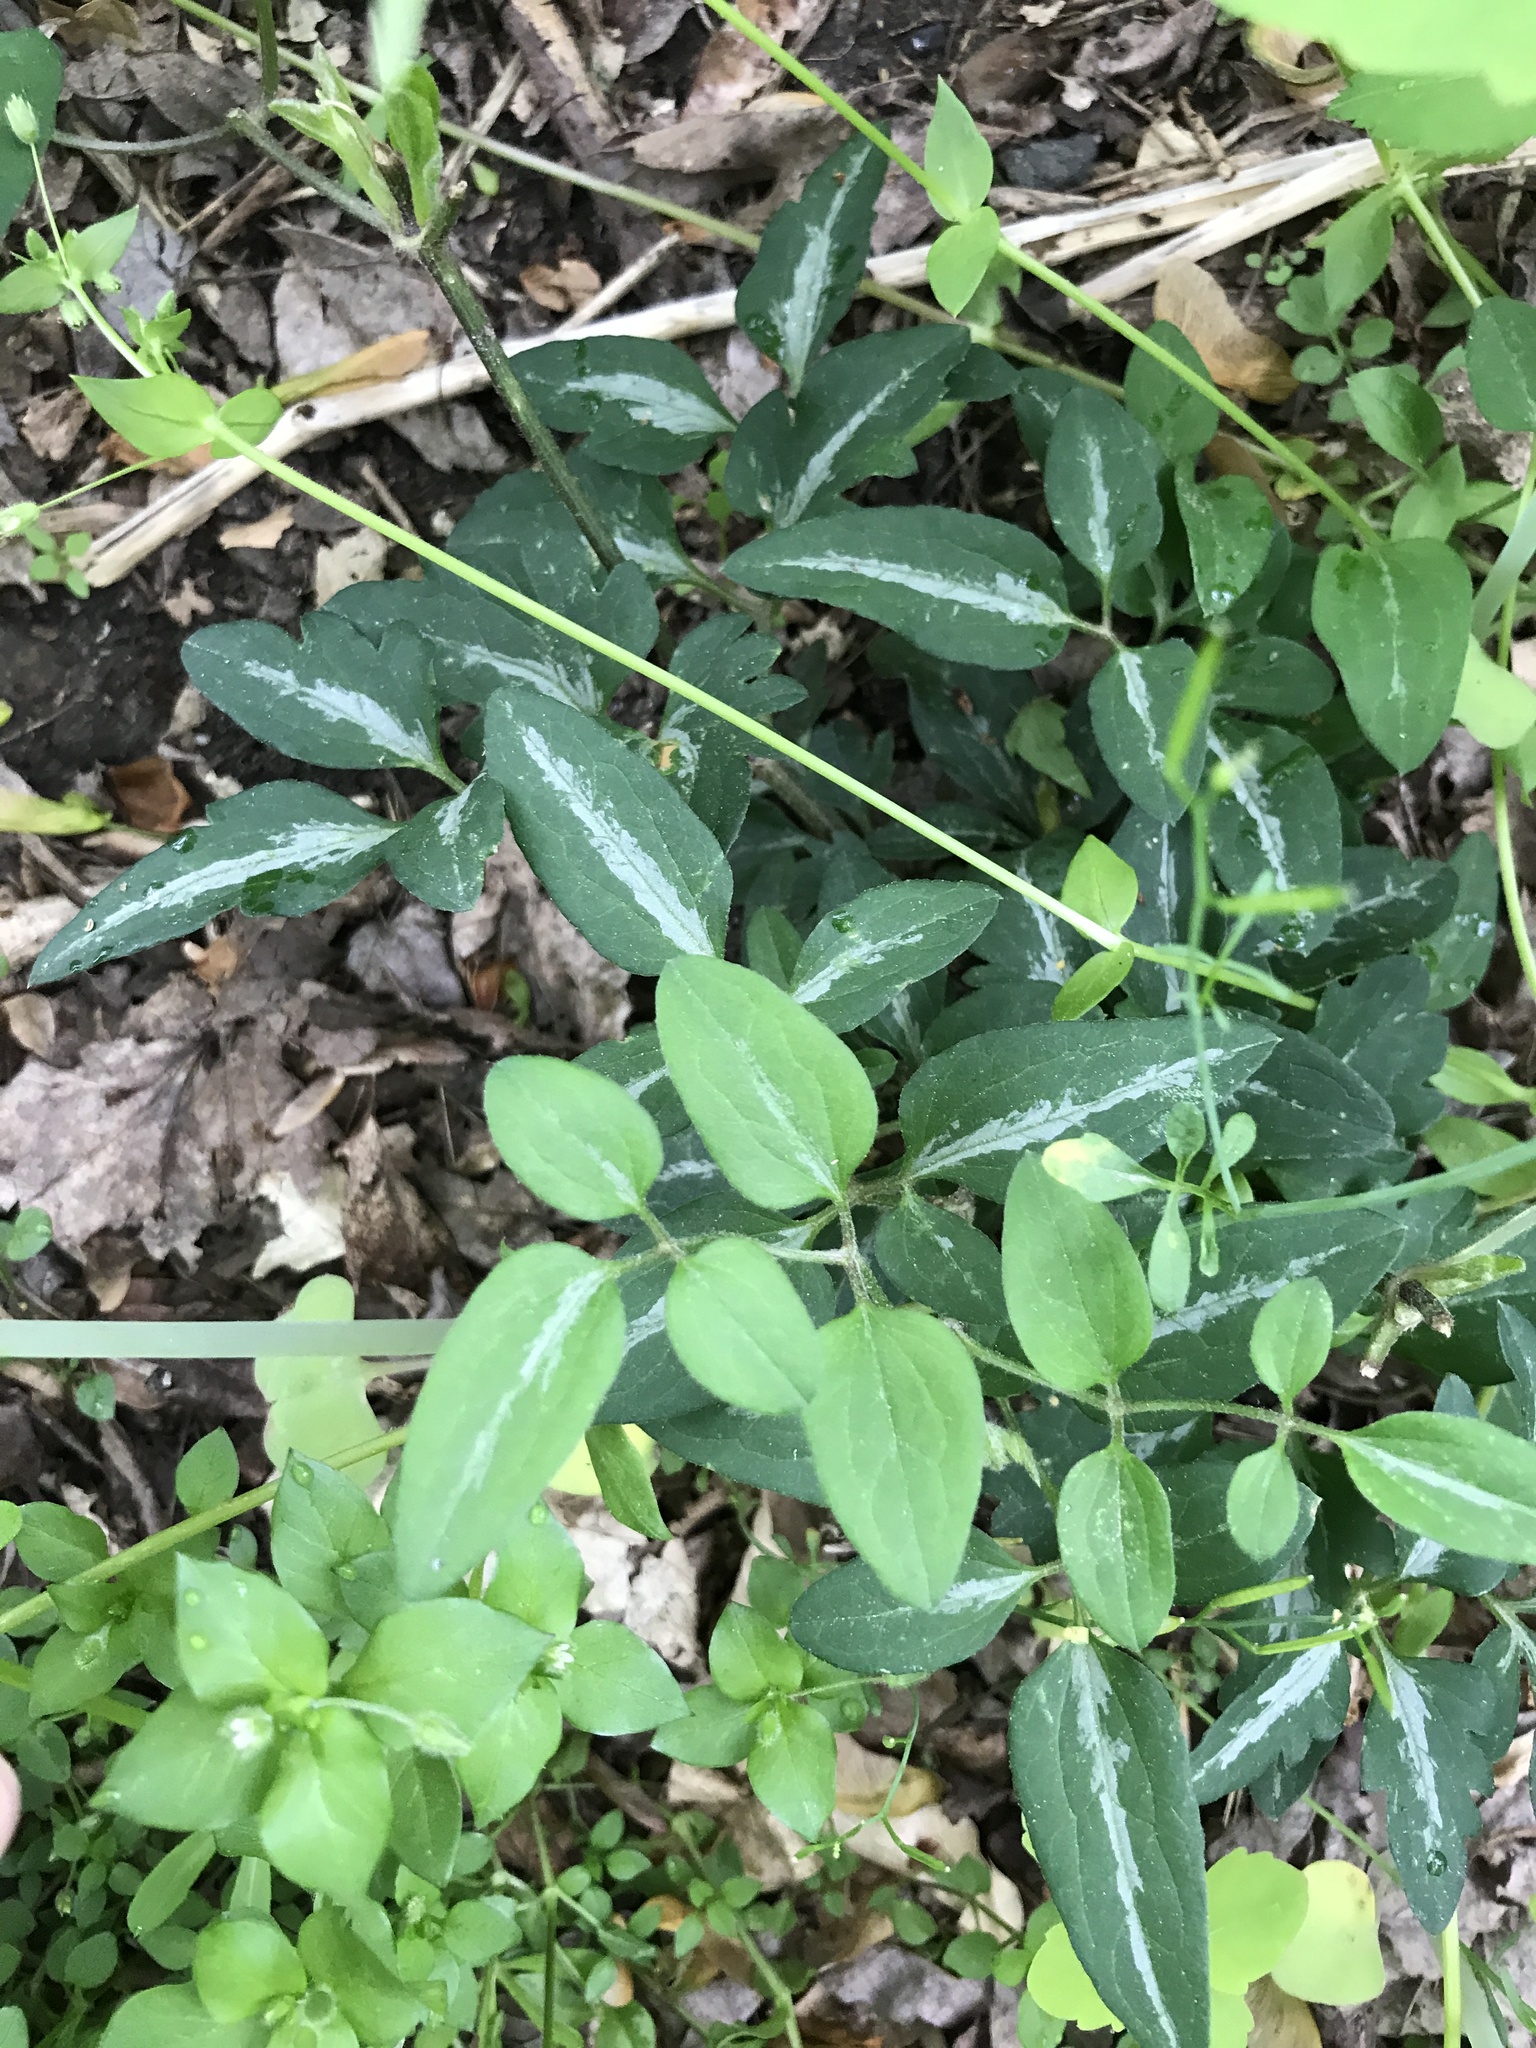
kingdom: Plantae
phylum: Tracheophyta
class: Magnoliopsida
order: Ranunculales
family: Ranunculaceae
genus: Clematis
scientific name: Clematis terniflora
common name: Sweet autumn clematis
